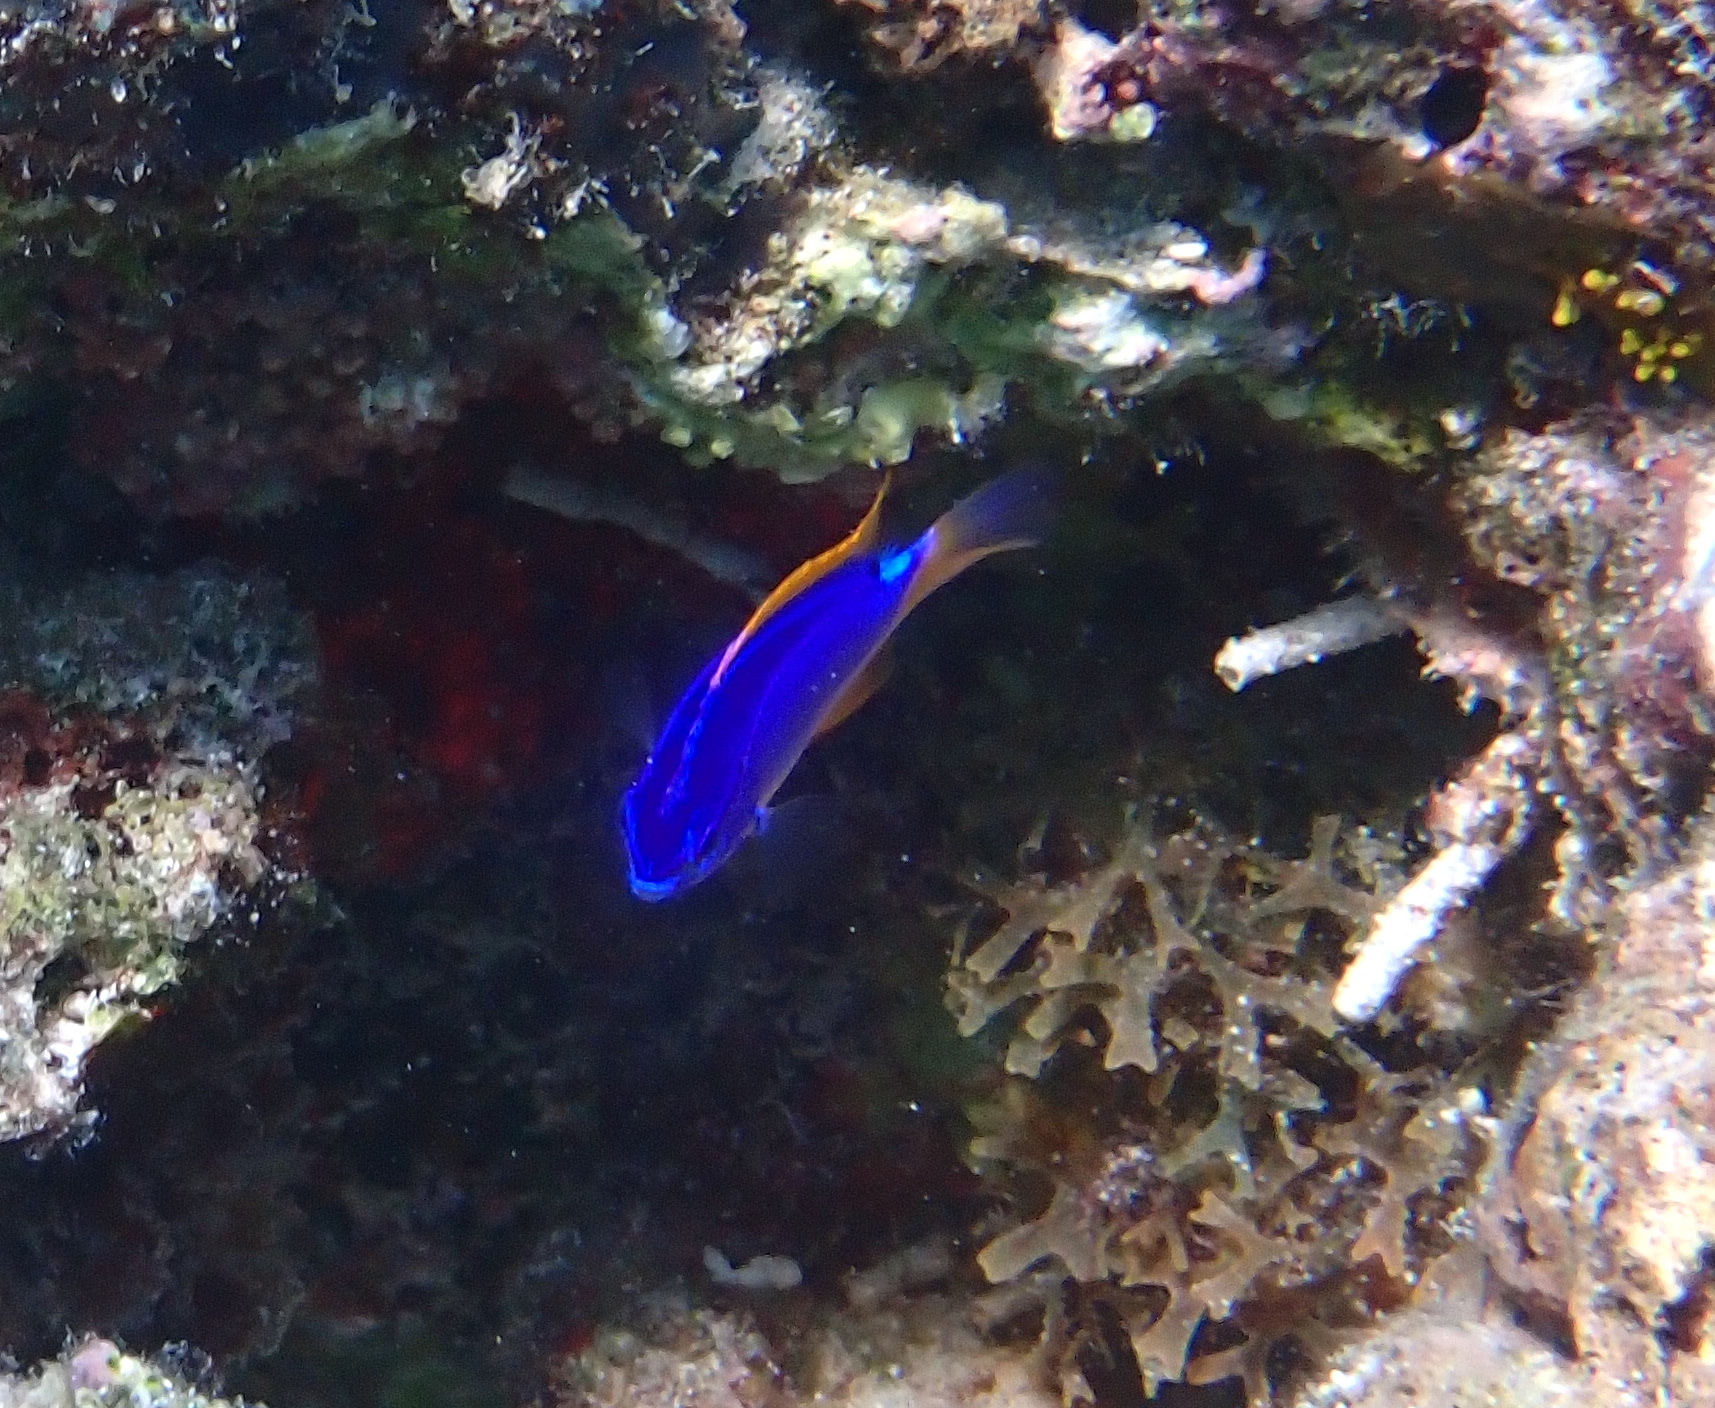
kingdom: Animalia
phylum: Chordata
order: Perciformes
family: Pomacentridae
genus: Chrysiptera
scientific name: Chrysiptera taupou
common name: Fiji damsel
